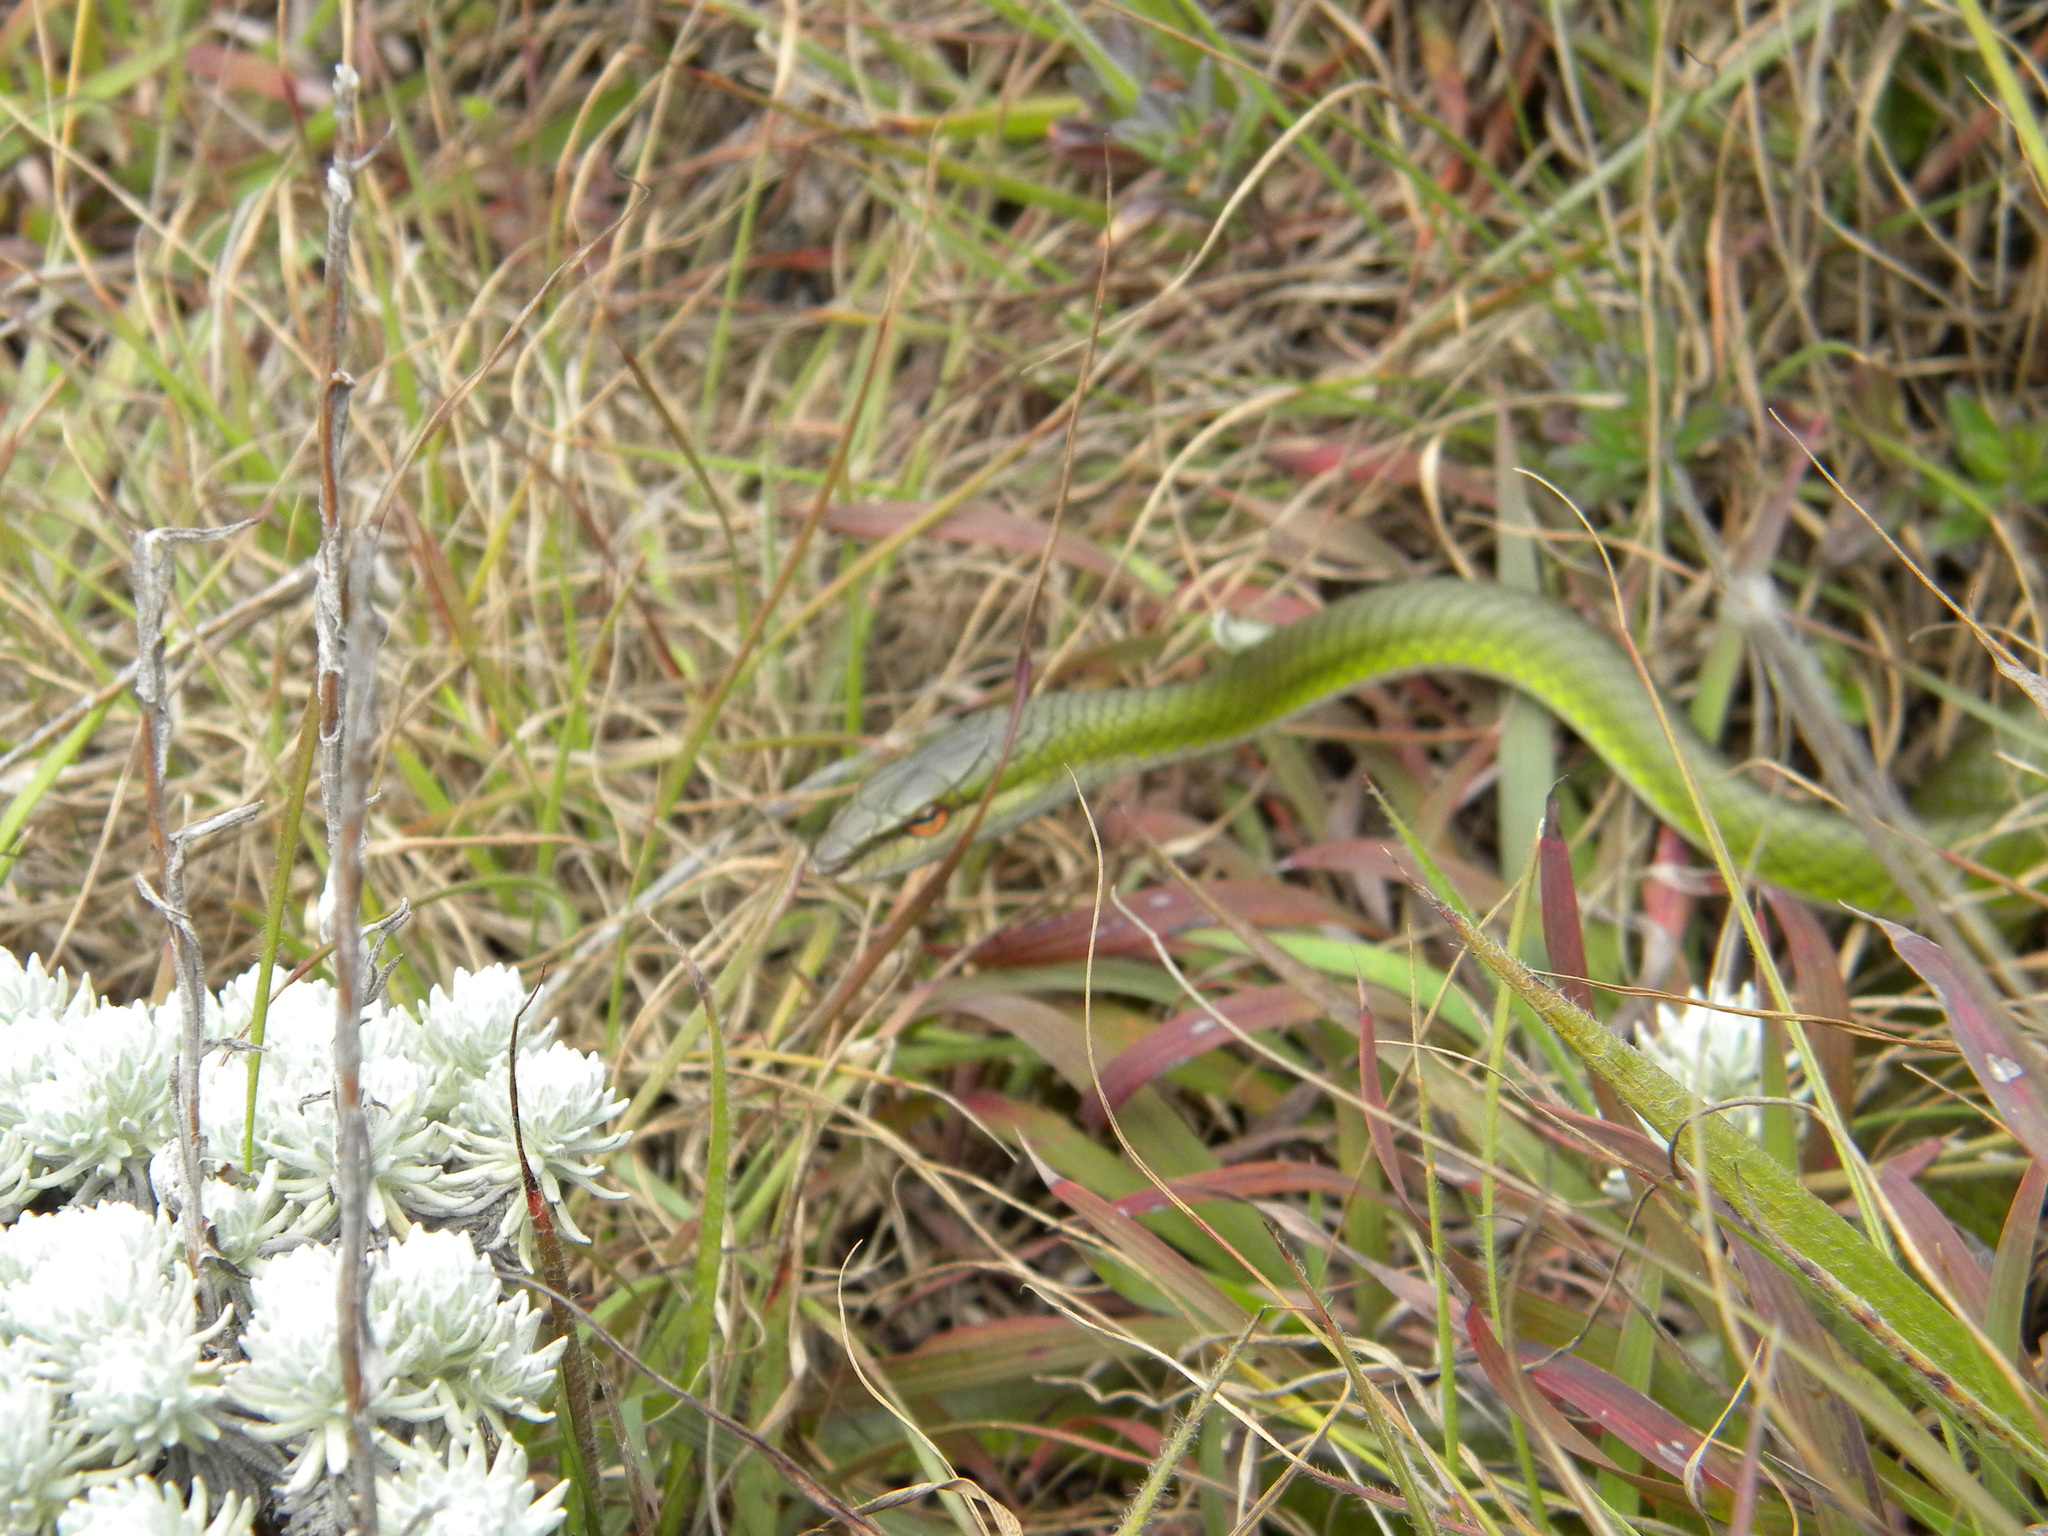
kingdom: Animalia
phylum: Chordata
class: Squamata
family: Colubridae
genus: Ahaetulla
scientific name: Ahaetulla dispar
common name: Günther's vine snake
